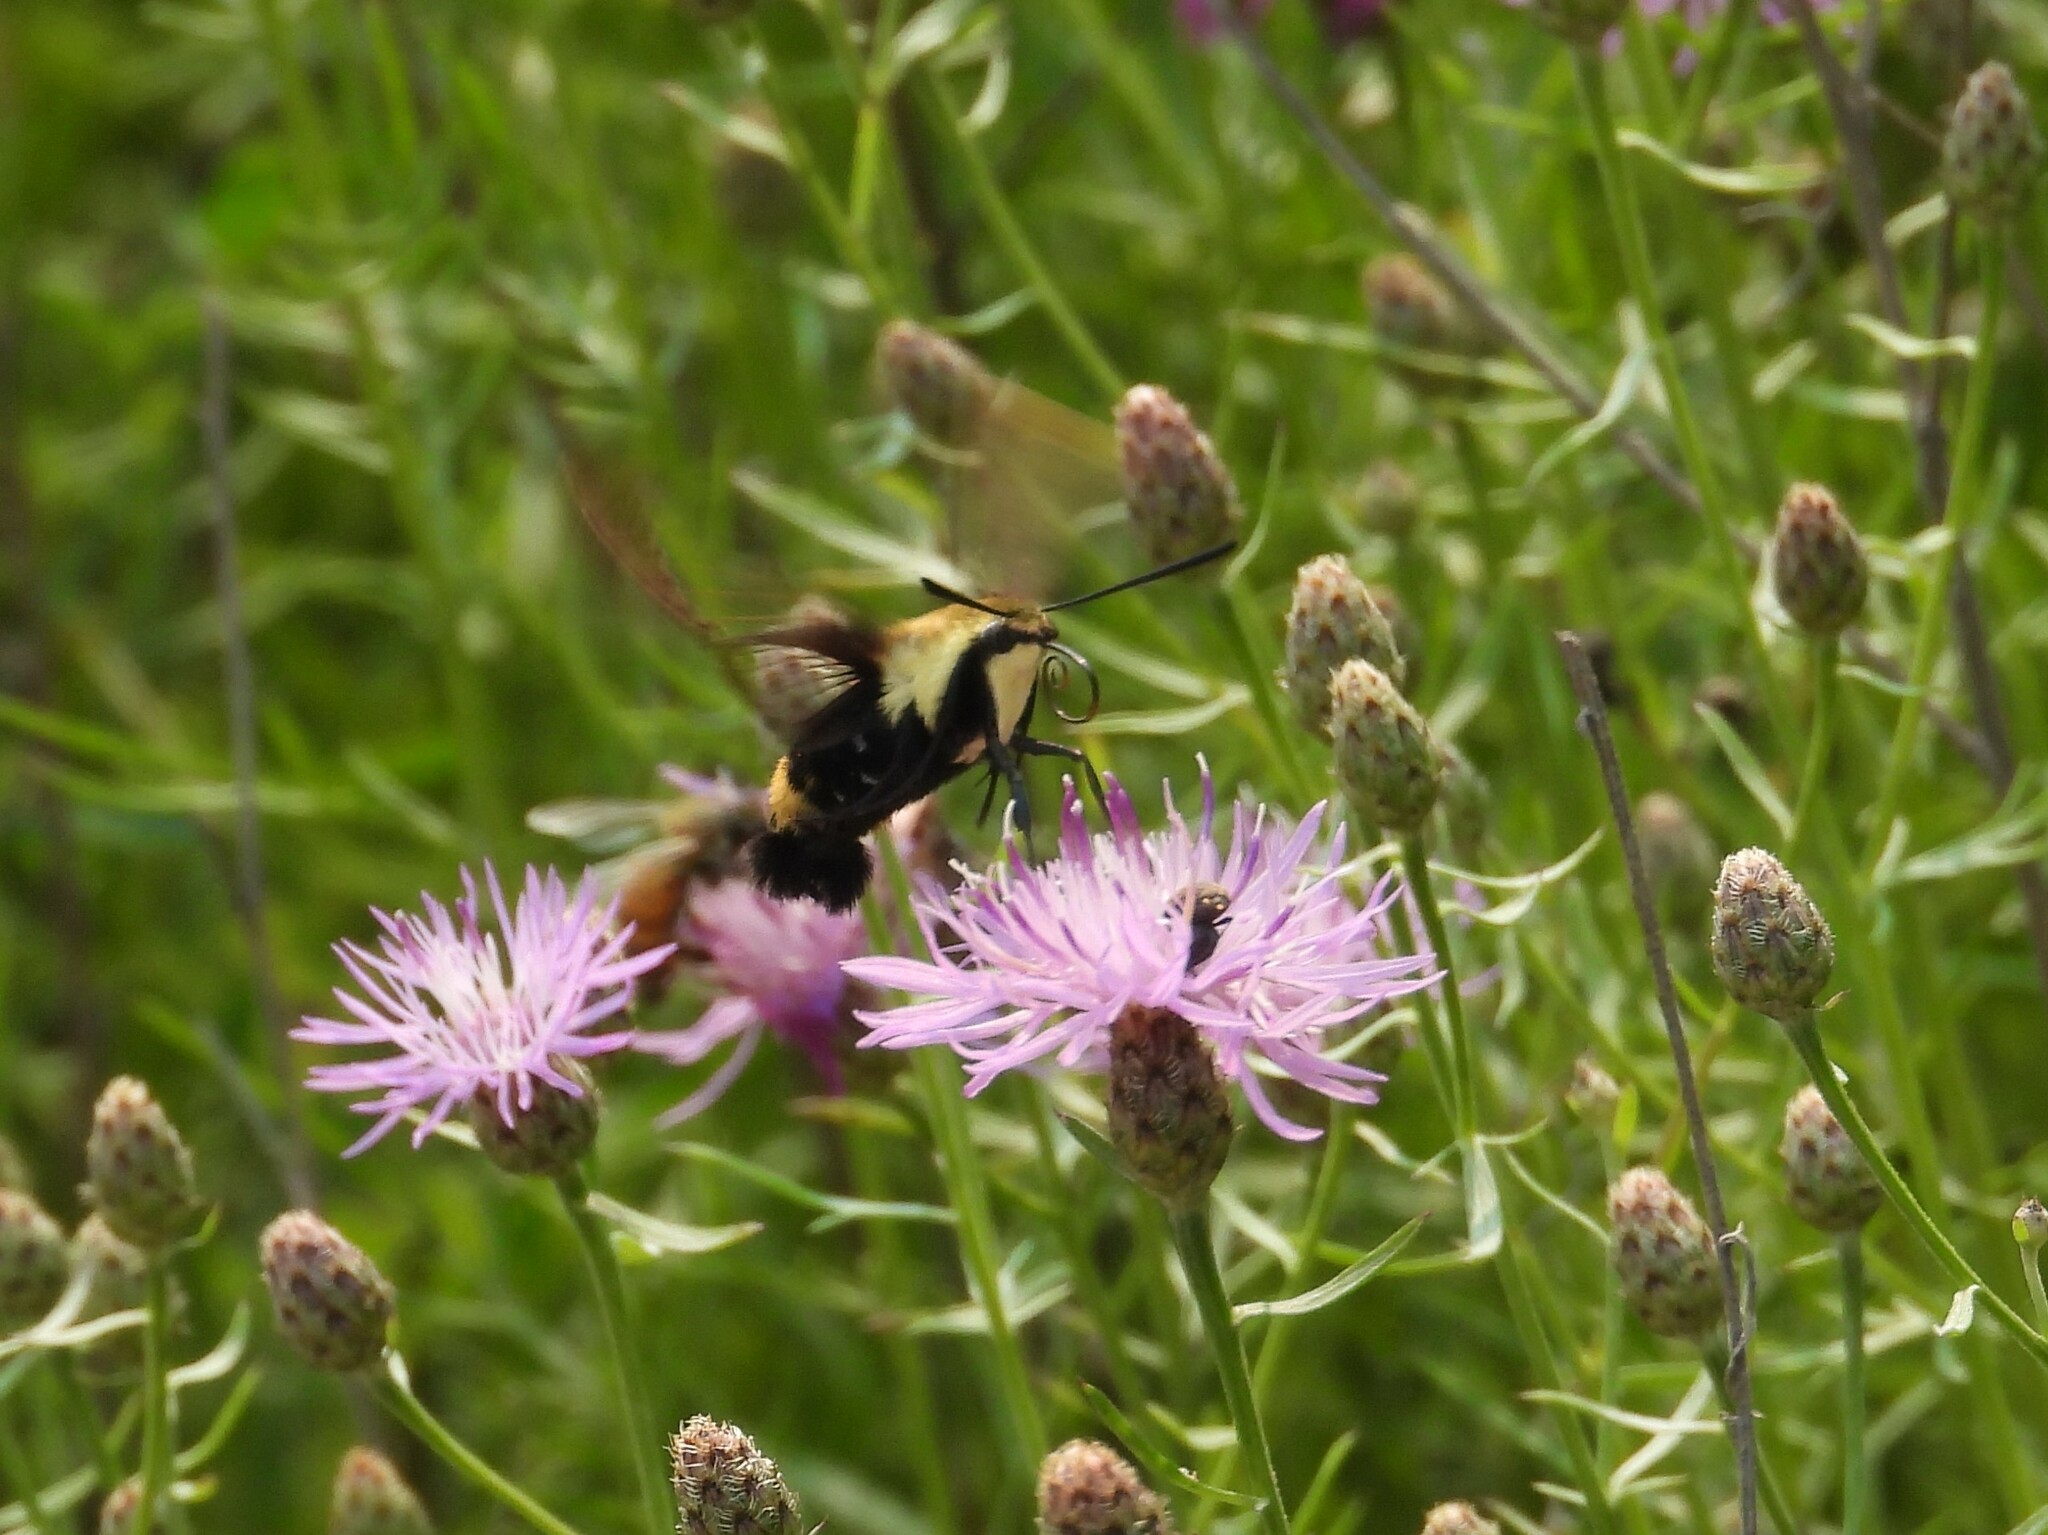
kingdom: Animalia
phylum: Arthropoda
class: Insecta
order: Lepidoptera
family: Sphingidae
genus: Hemaris
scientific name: Hemaris diffinis
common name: Bumblebee moth
